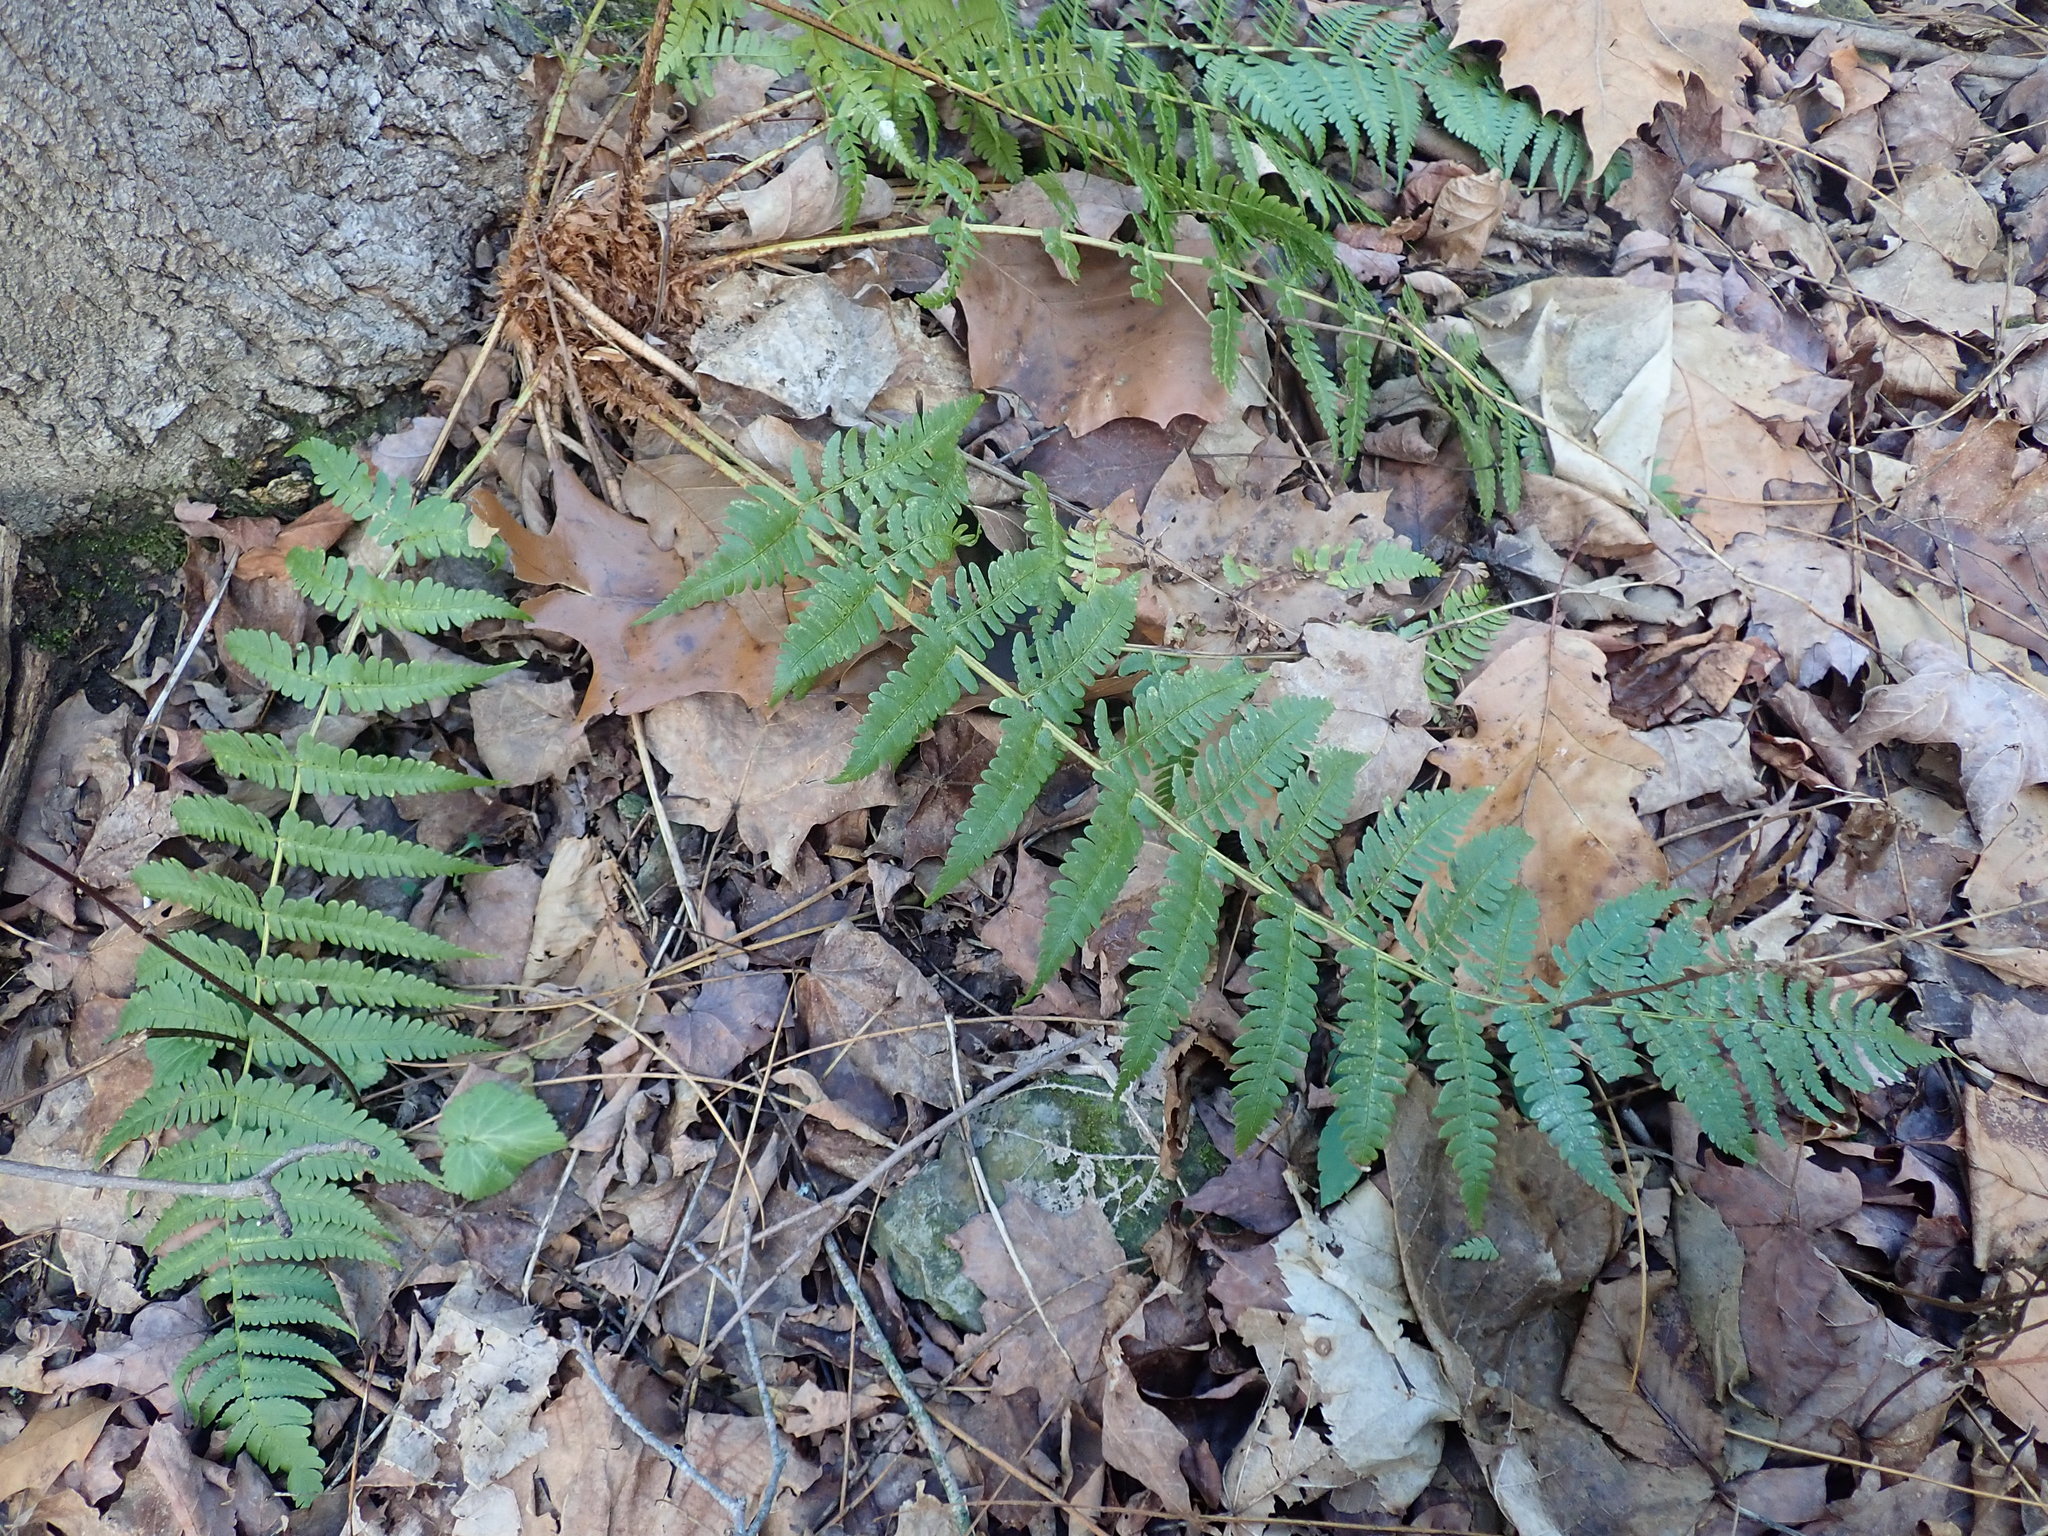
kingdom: Plantae
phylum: Tracheophyta
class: Polypodiopsida
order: Polypodiales
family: Dryopteridaceae
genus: Dryopteris
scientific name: Dryopteris marginalis
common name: Marginal wood fern
